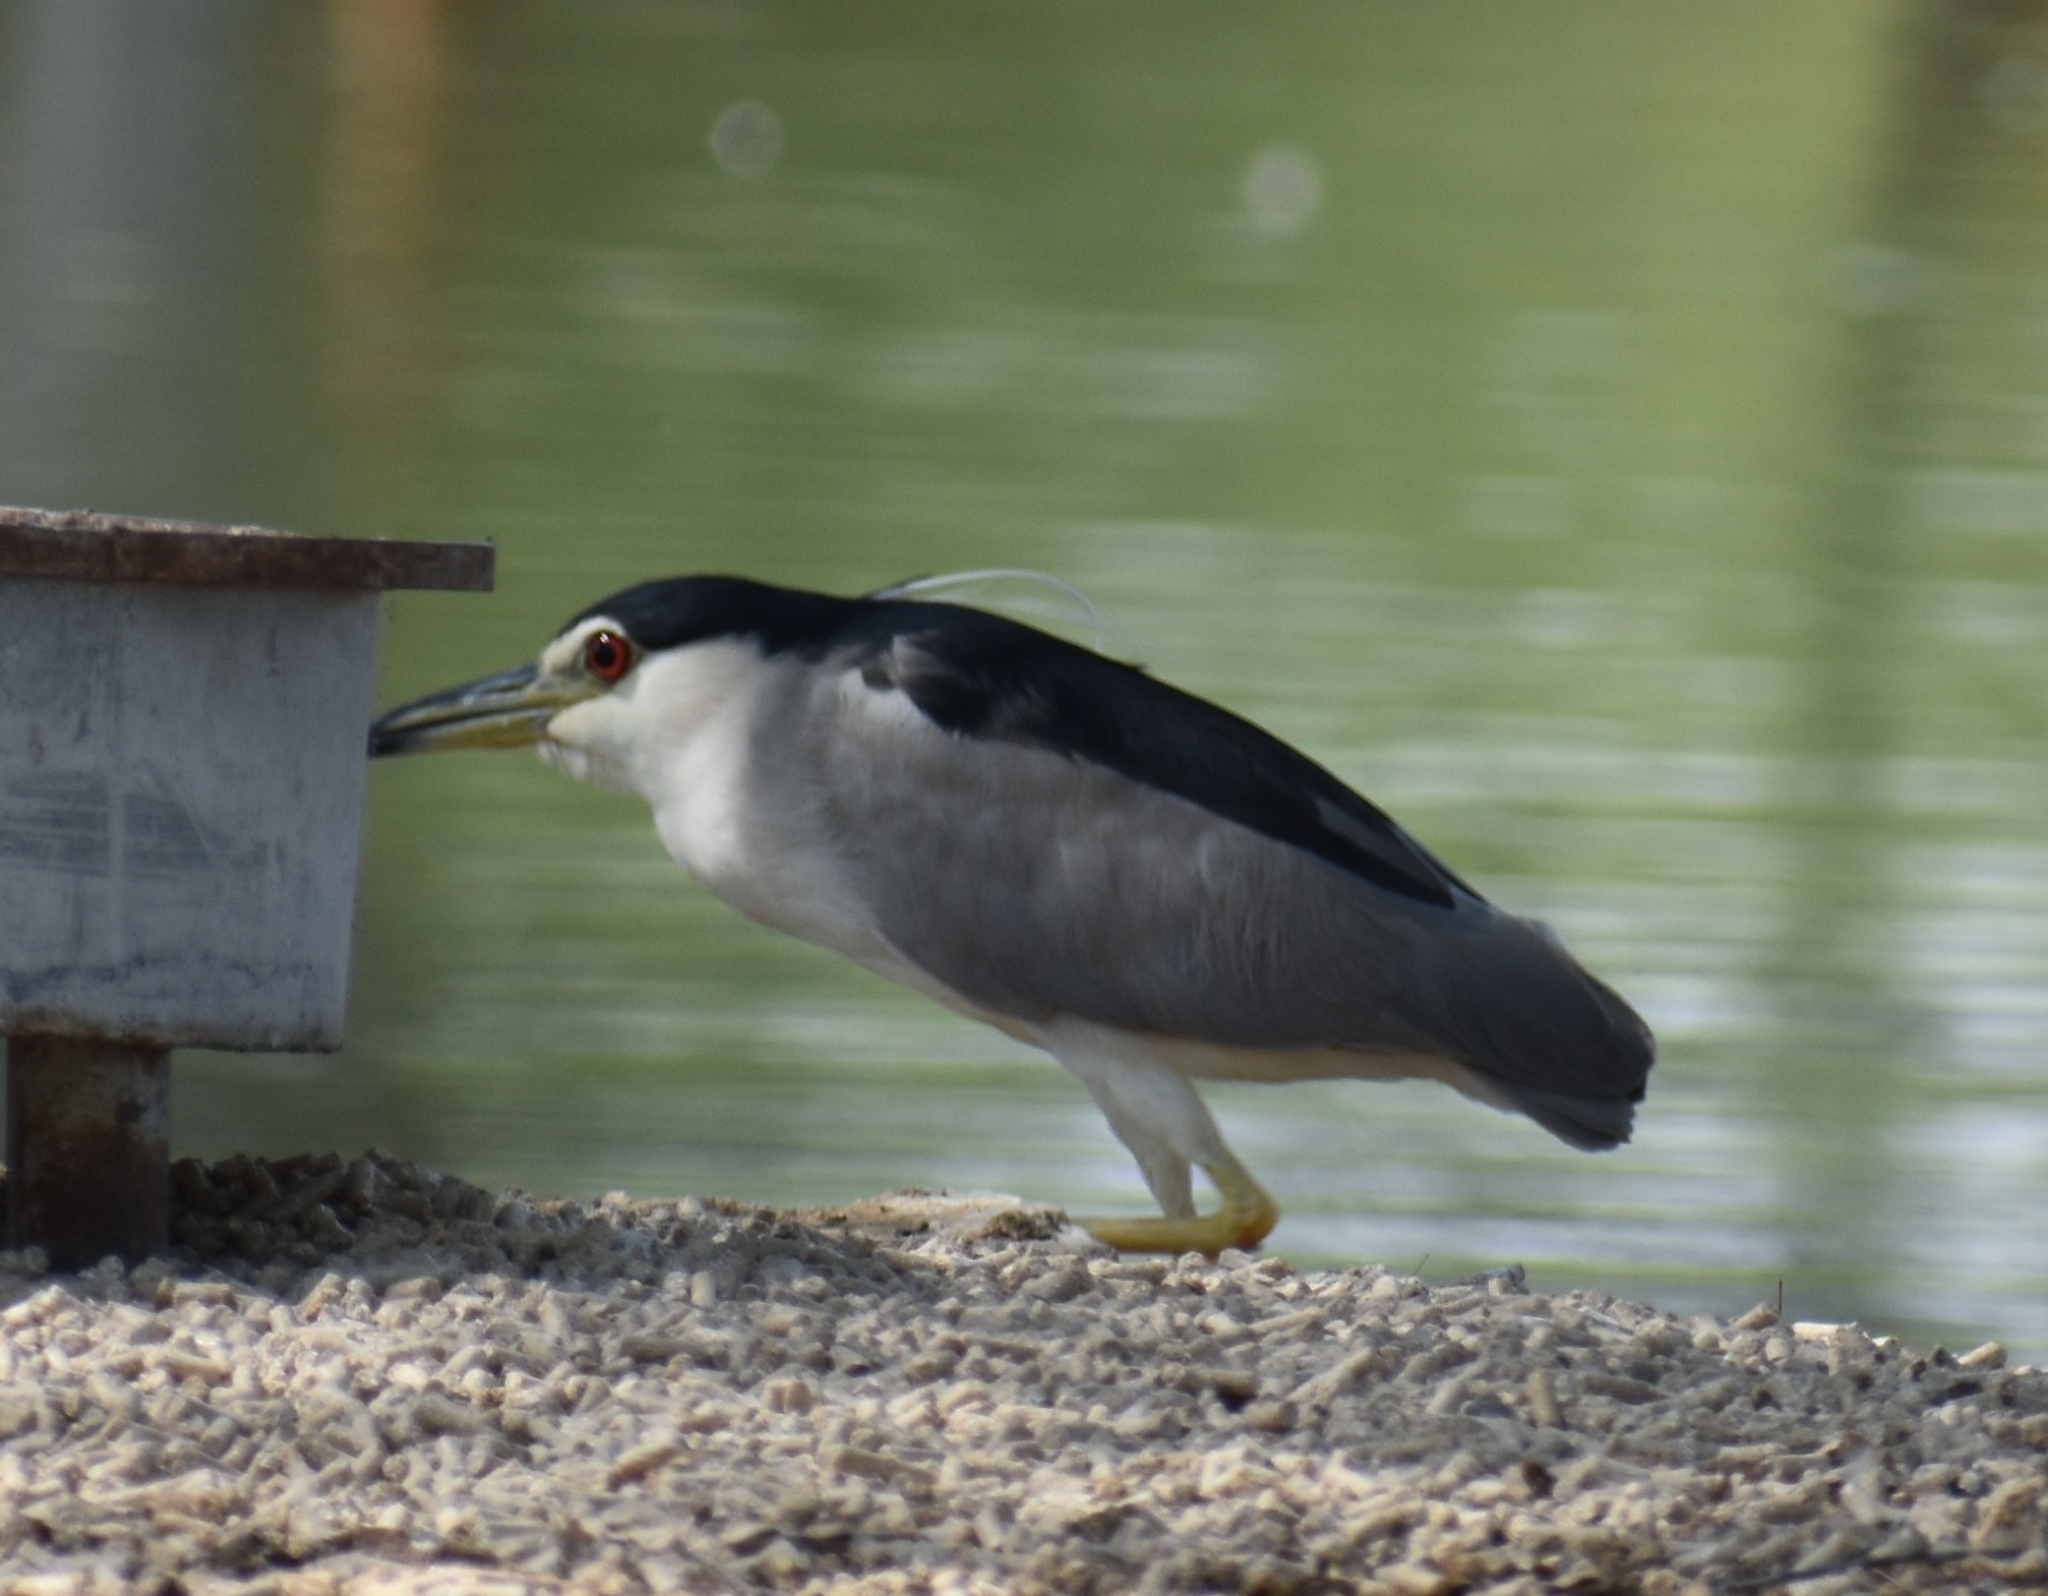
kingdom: Animalia
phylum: Chordata
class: Aves
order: Pelecaniformes
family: Ardeidae
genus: Nycticorax
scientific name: Nycticorax nycticorax
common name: Black-crowned night heron
